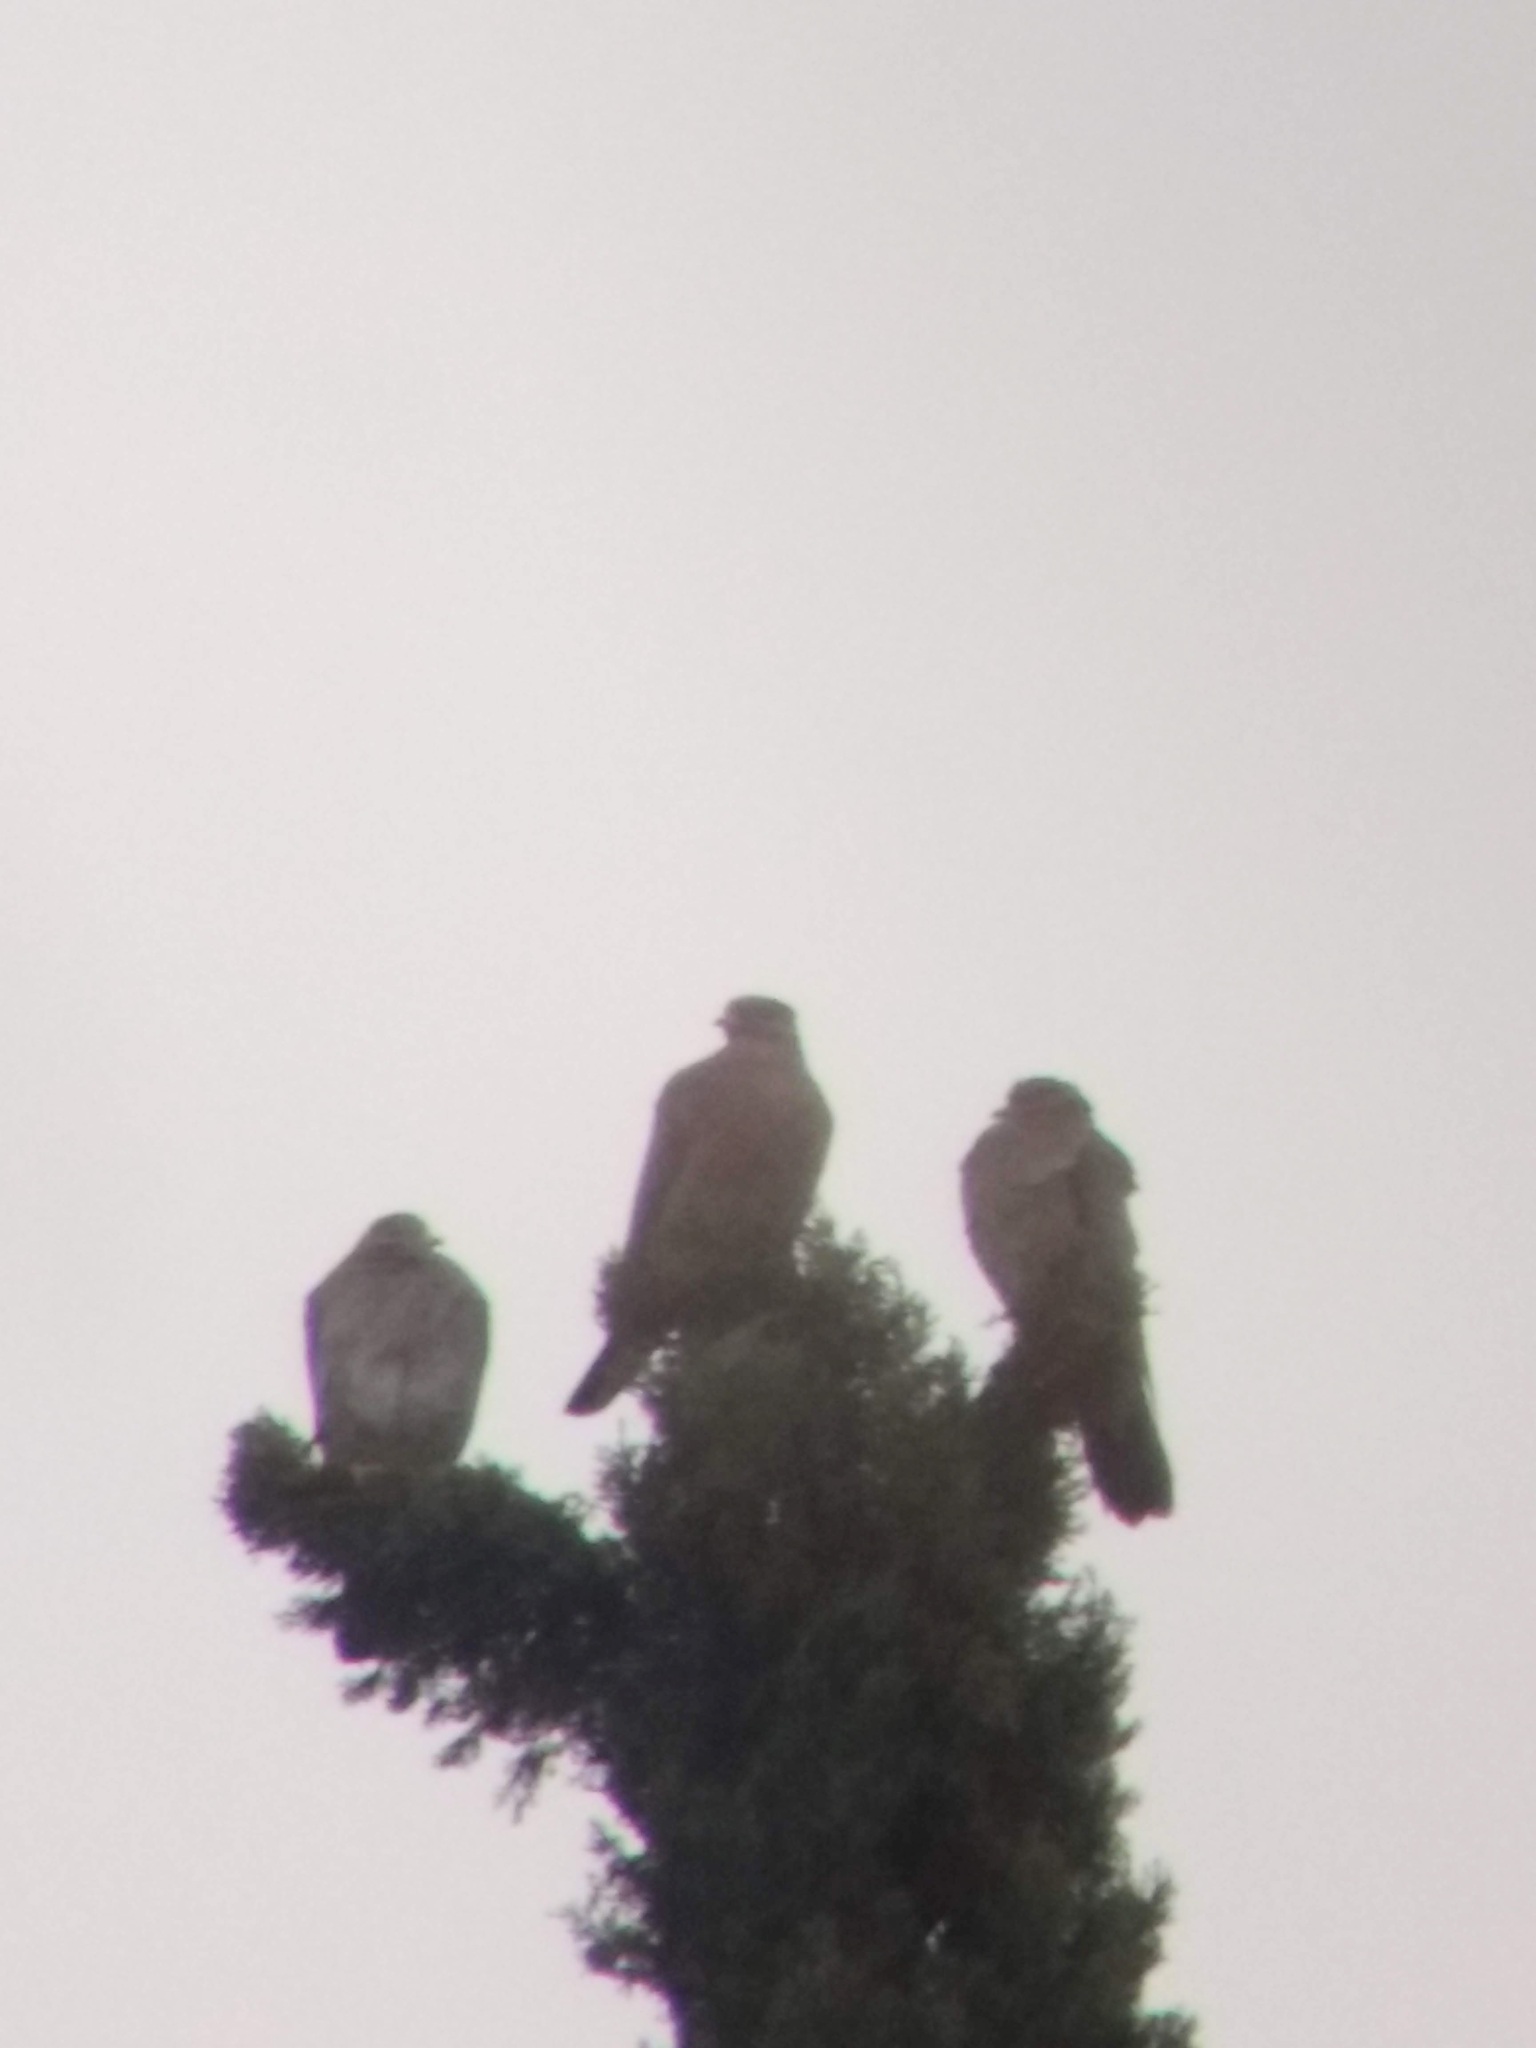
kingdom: Animalia
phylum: Chordata
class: Aves
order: Columbiformes
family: Columbidae
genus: Patagioenas
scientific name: Patagioenas fasciata
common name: Band-tailed pigeon
